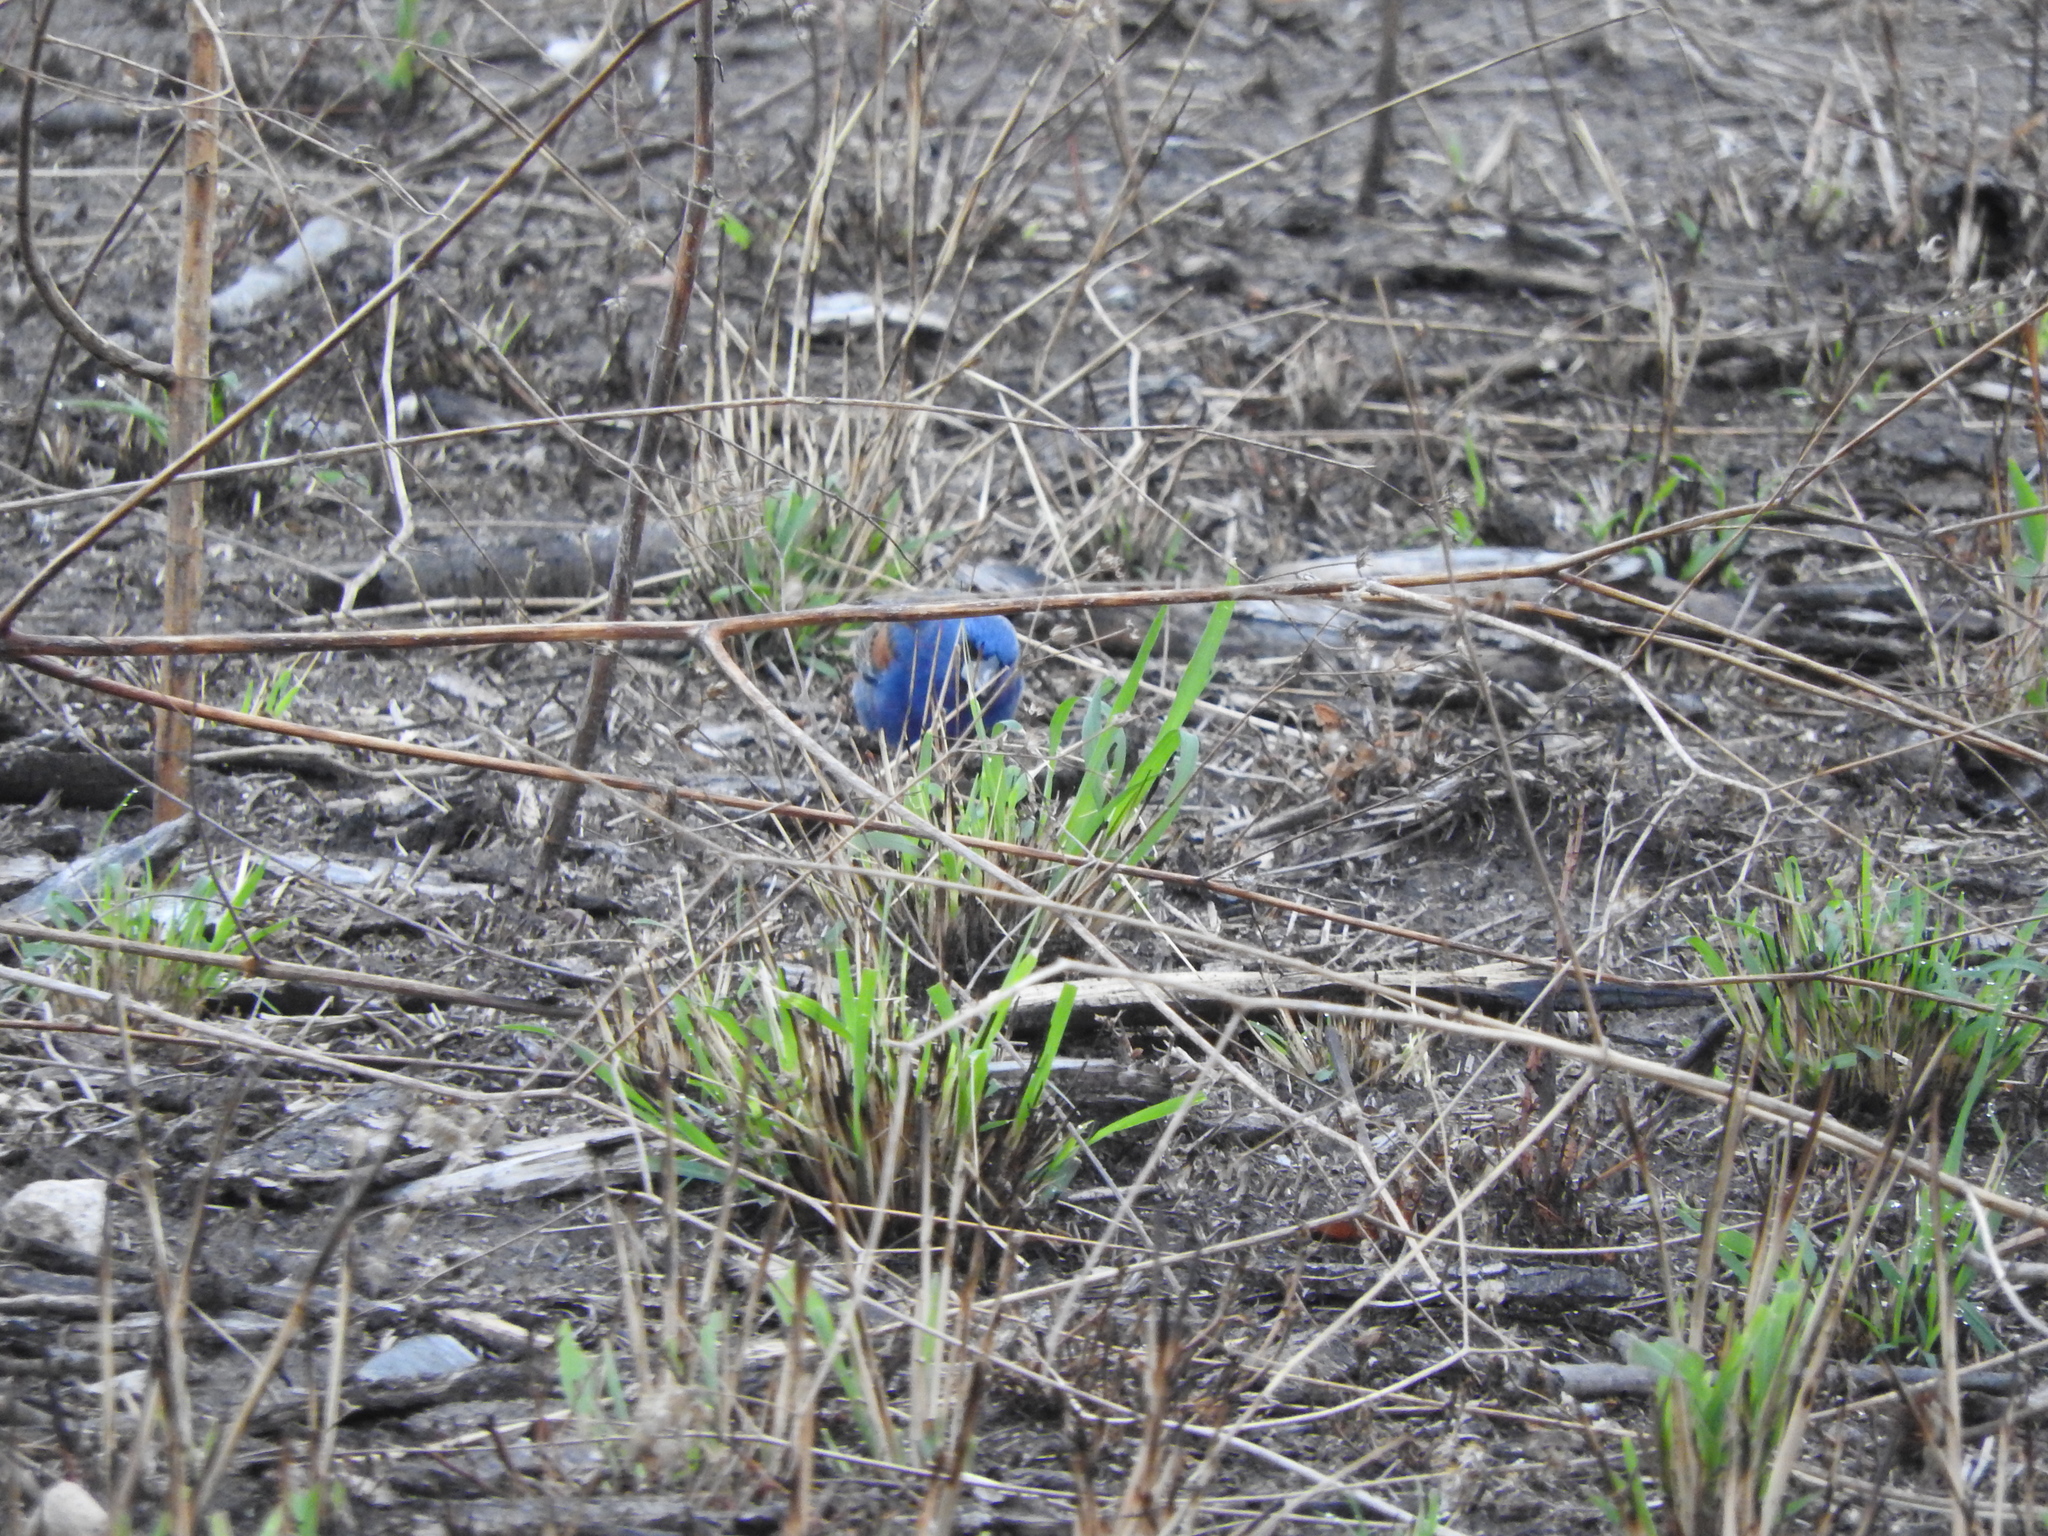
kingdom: Animalia
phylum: Chordata
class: Aves
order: Passeriformes
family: Cardinalidae
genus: Passerina
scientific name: Passerina caerulea
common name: Blue grosbeak
